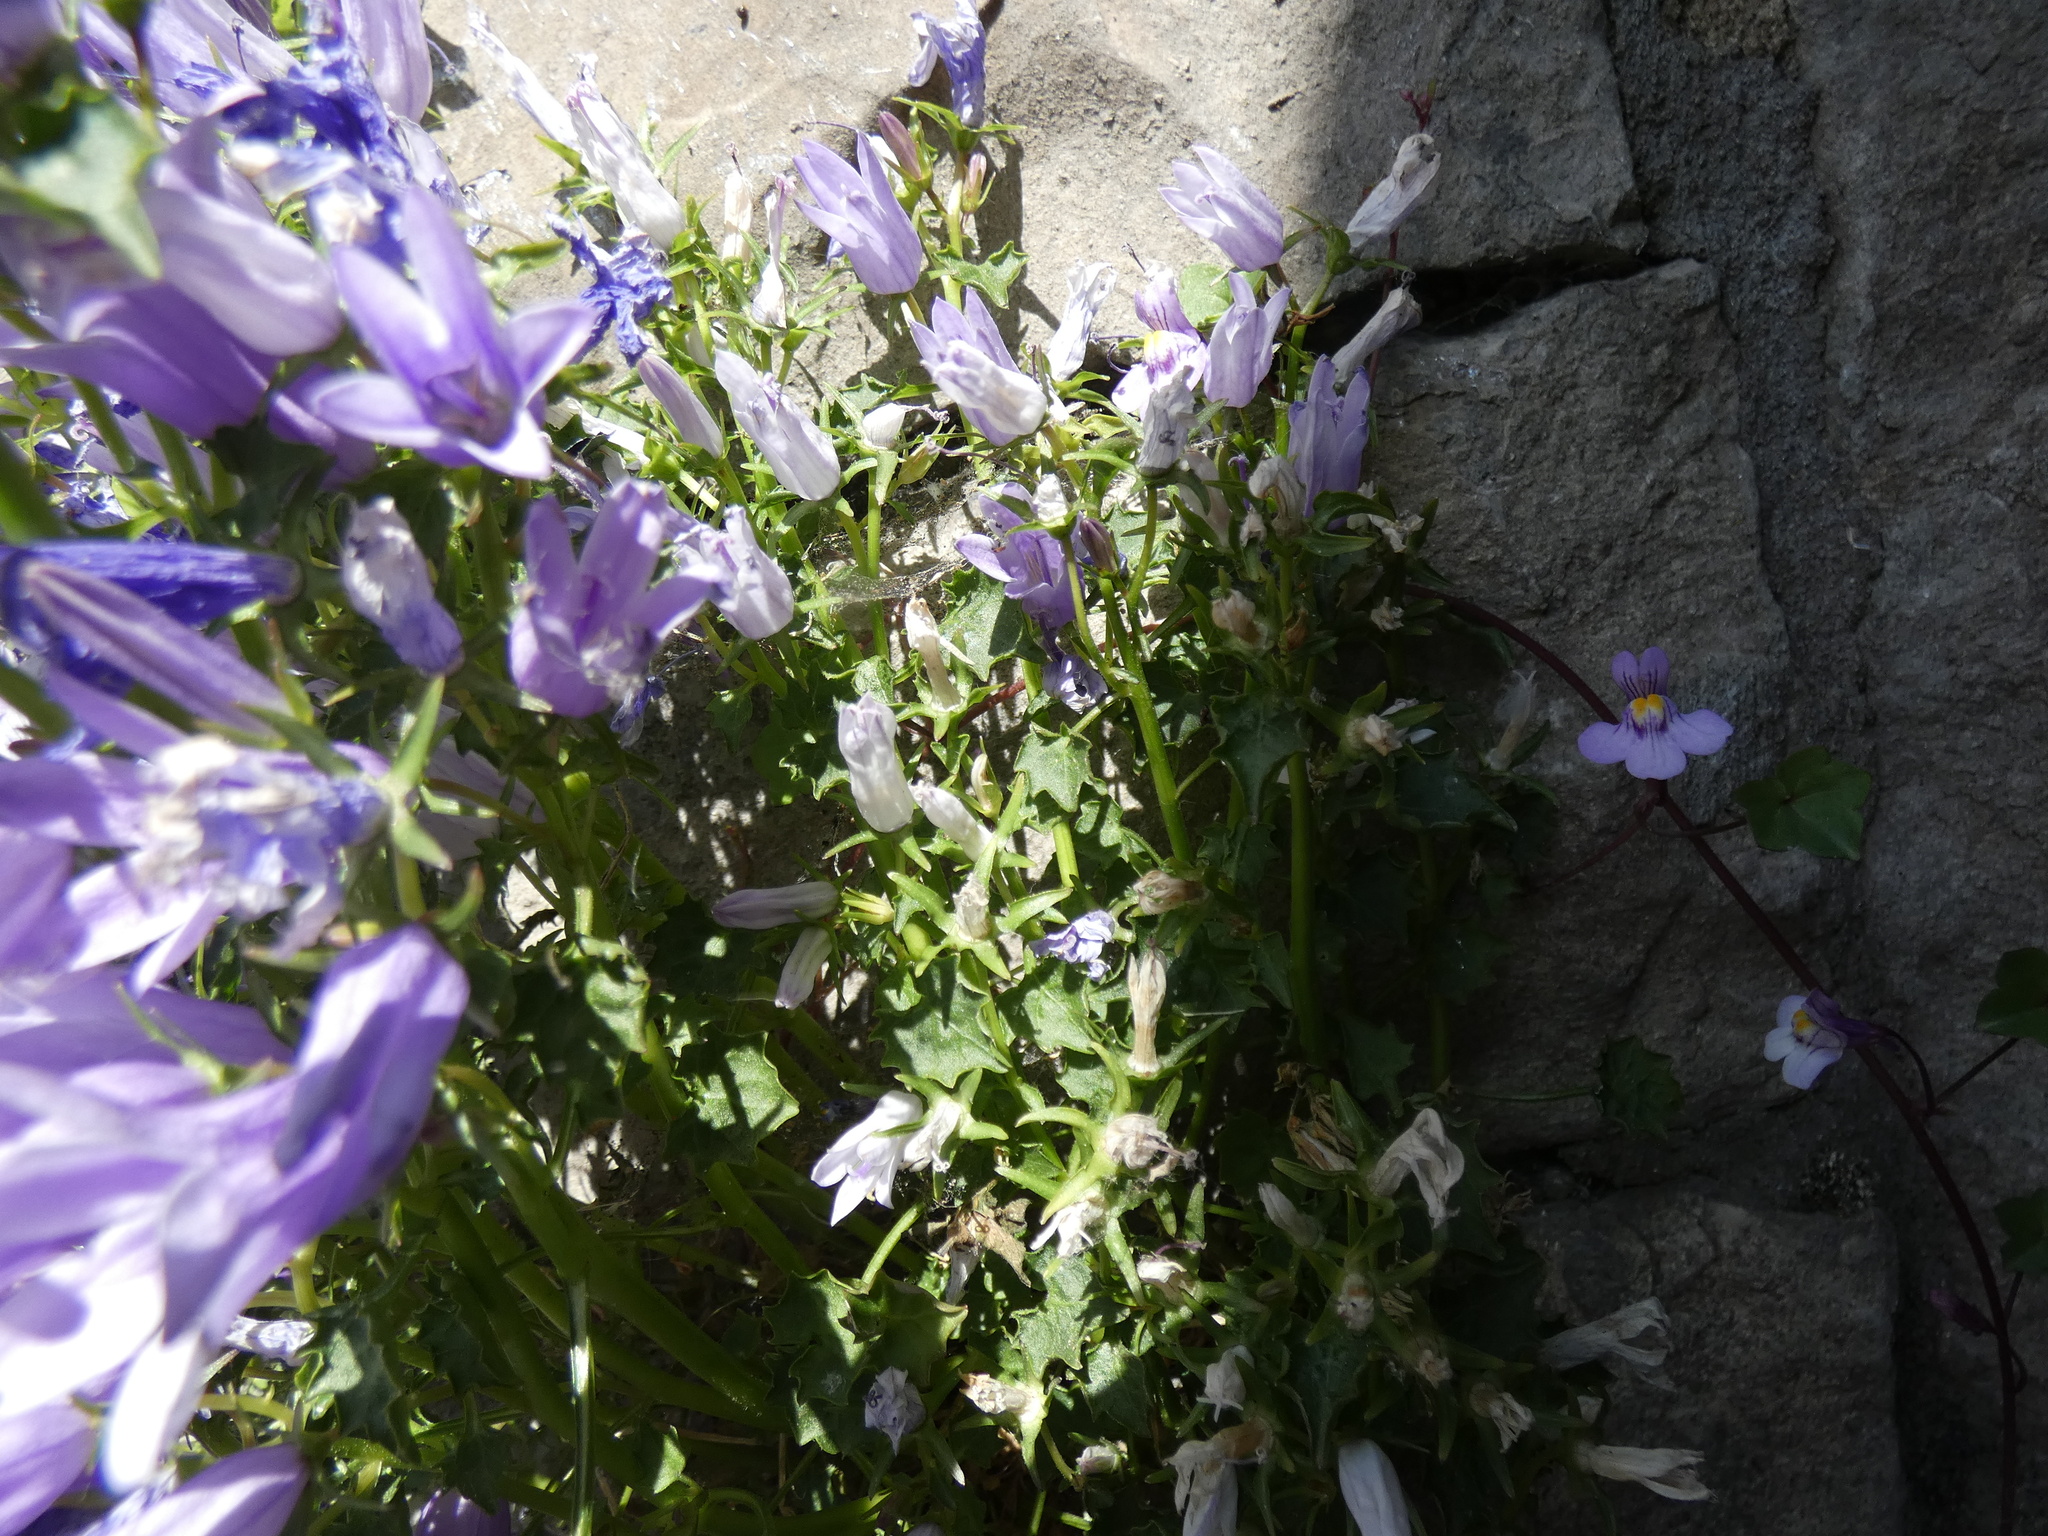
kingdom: Plantae
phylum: Tracheophyta
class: Magnoliopsida
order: Asterales
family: Campanulaceae
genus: Campanula
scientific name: Campanula portenschlagiana
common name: Adria bellflower
